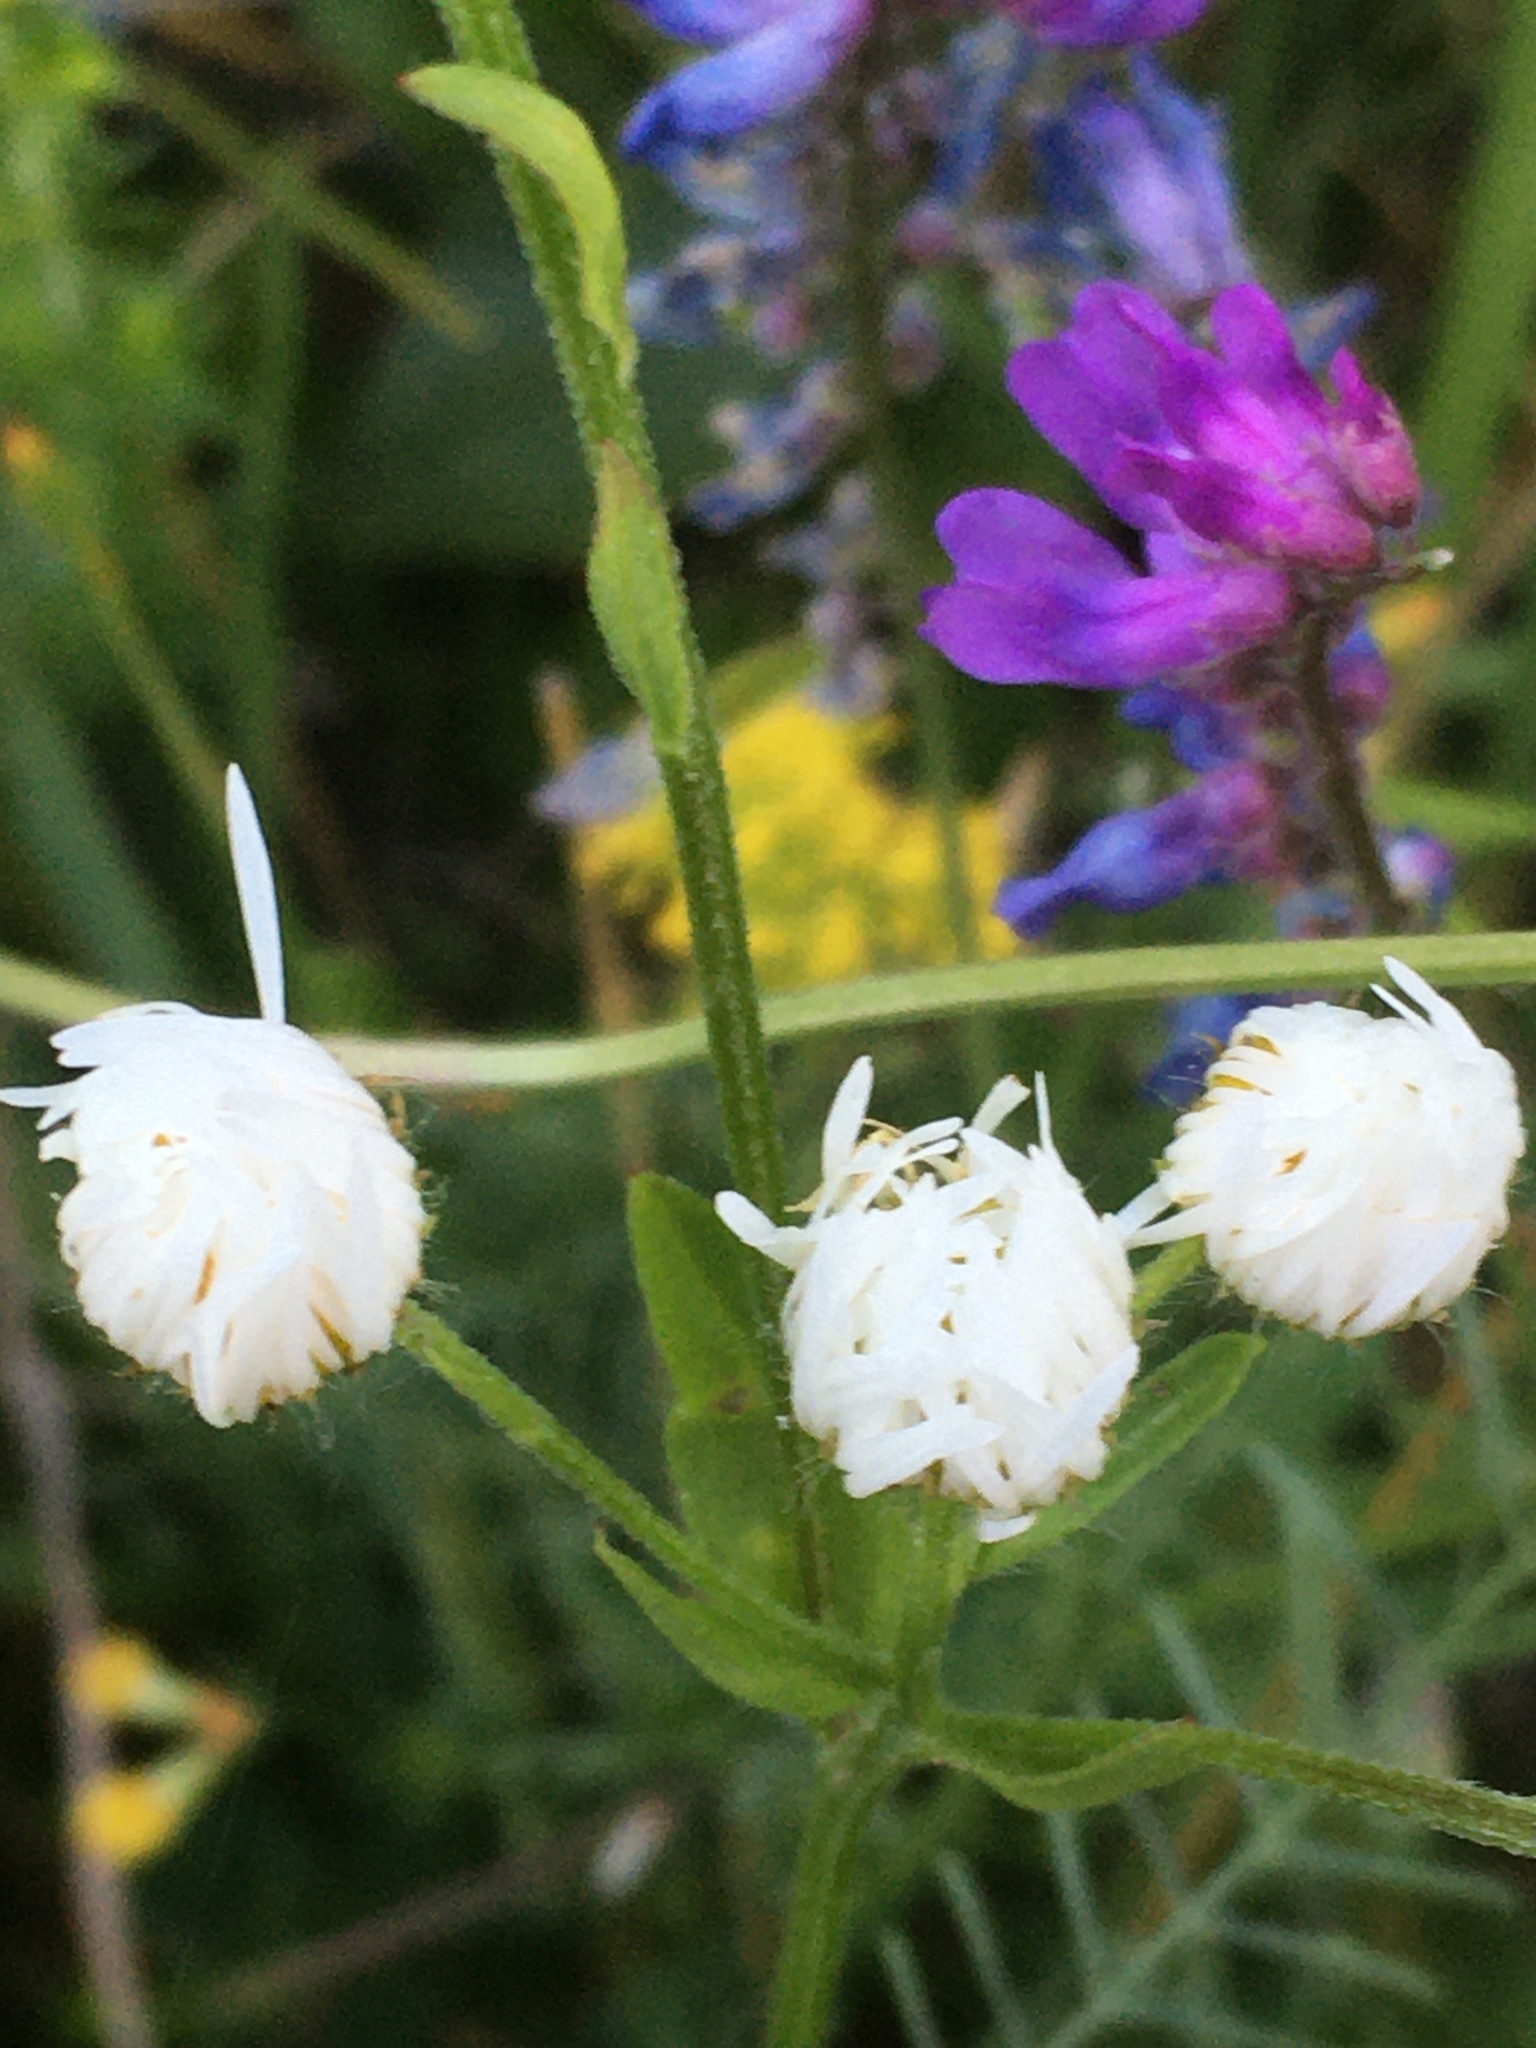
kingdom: Plantae
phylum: Tracheophyta
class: Magnoliopsida
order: Asterales
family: Asteraceae
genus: Erigeron
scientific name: Erigeron annuus
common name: Tall fleabane
